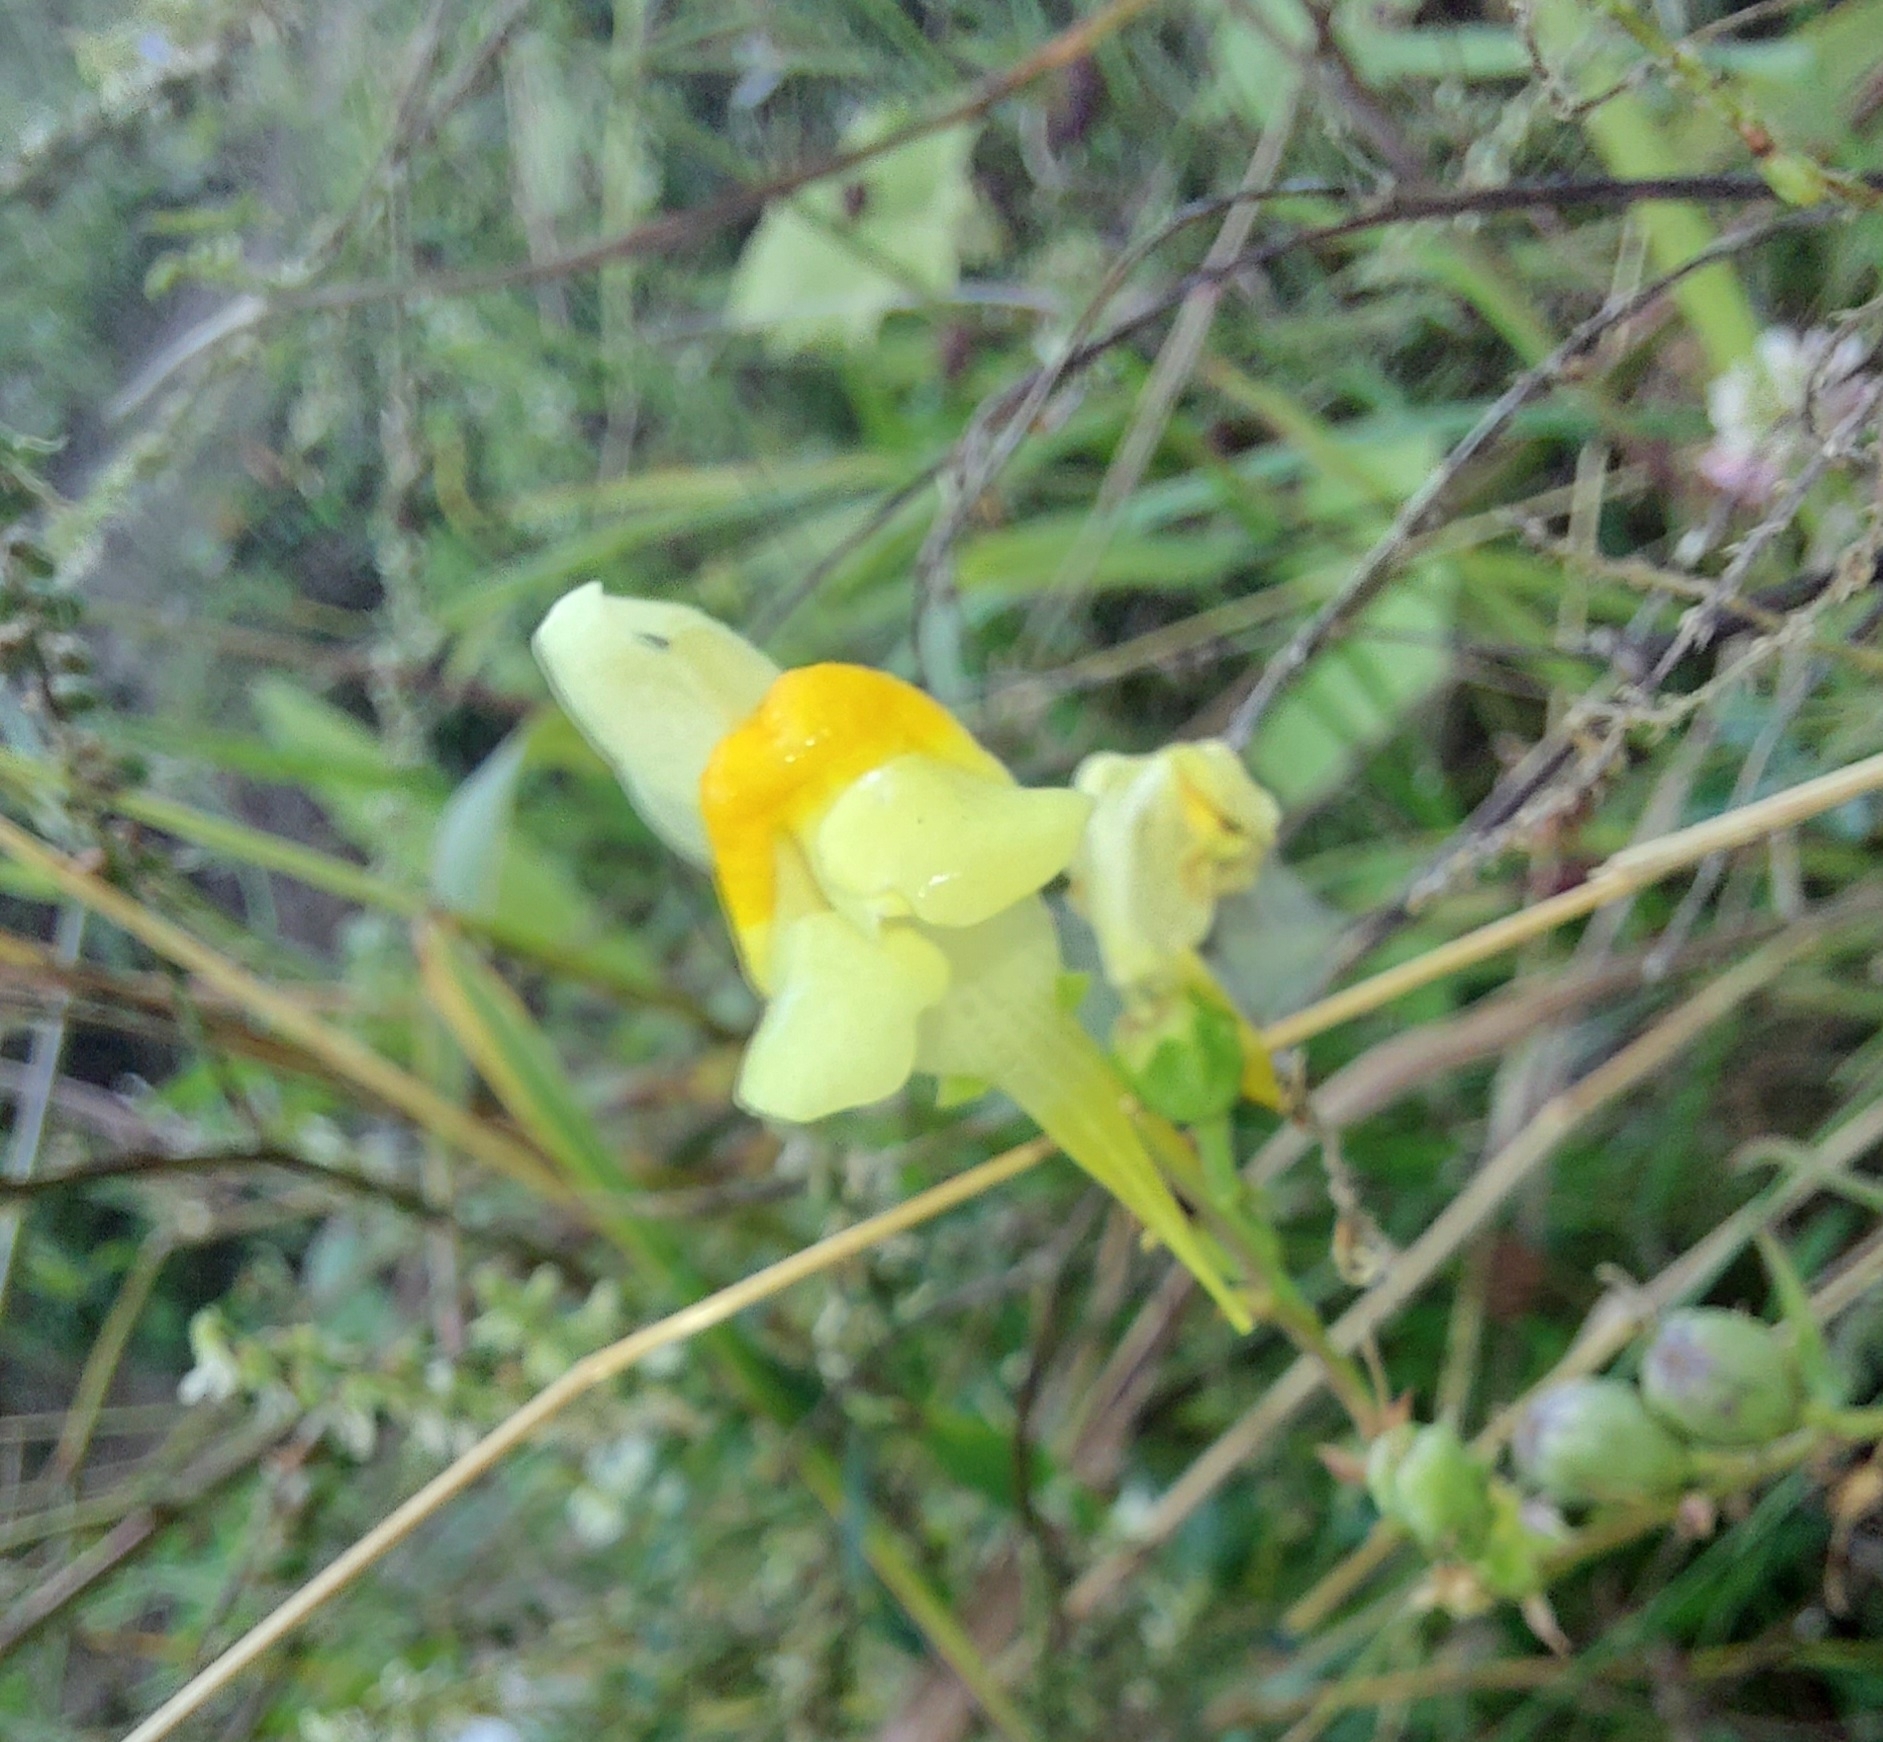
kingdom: Plantae
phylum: Tracheophyta
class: Magnoliopsida
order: Lamiales
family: Plantaginaceae
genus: Linaria
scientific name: Linaria vulgaris
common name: Butter and eggs
